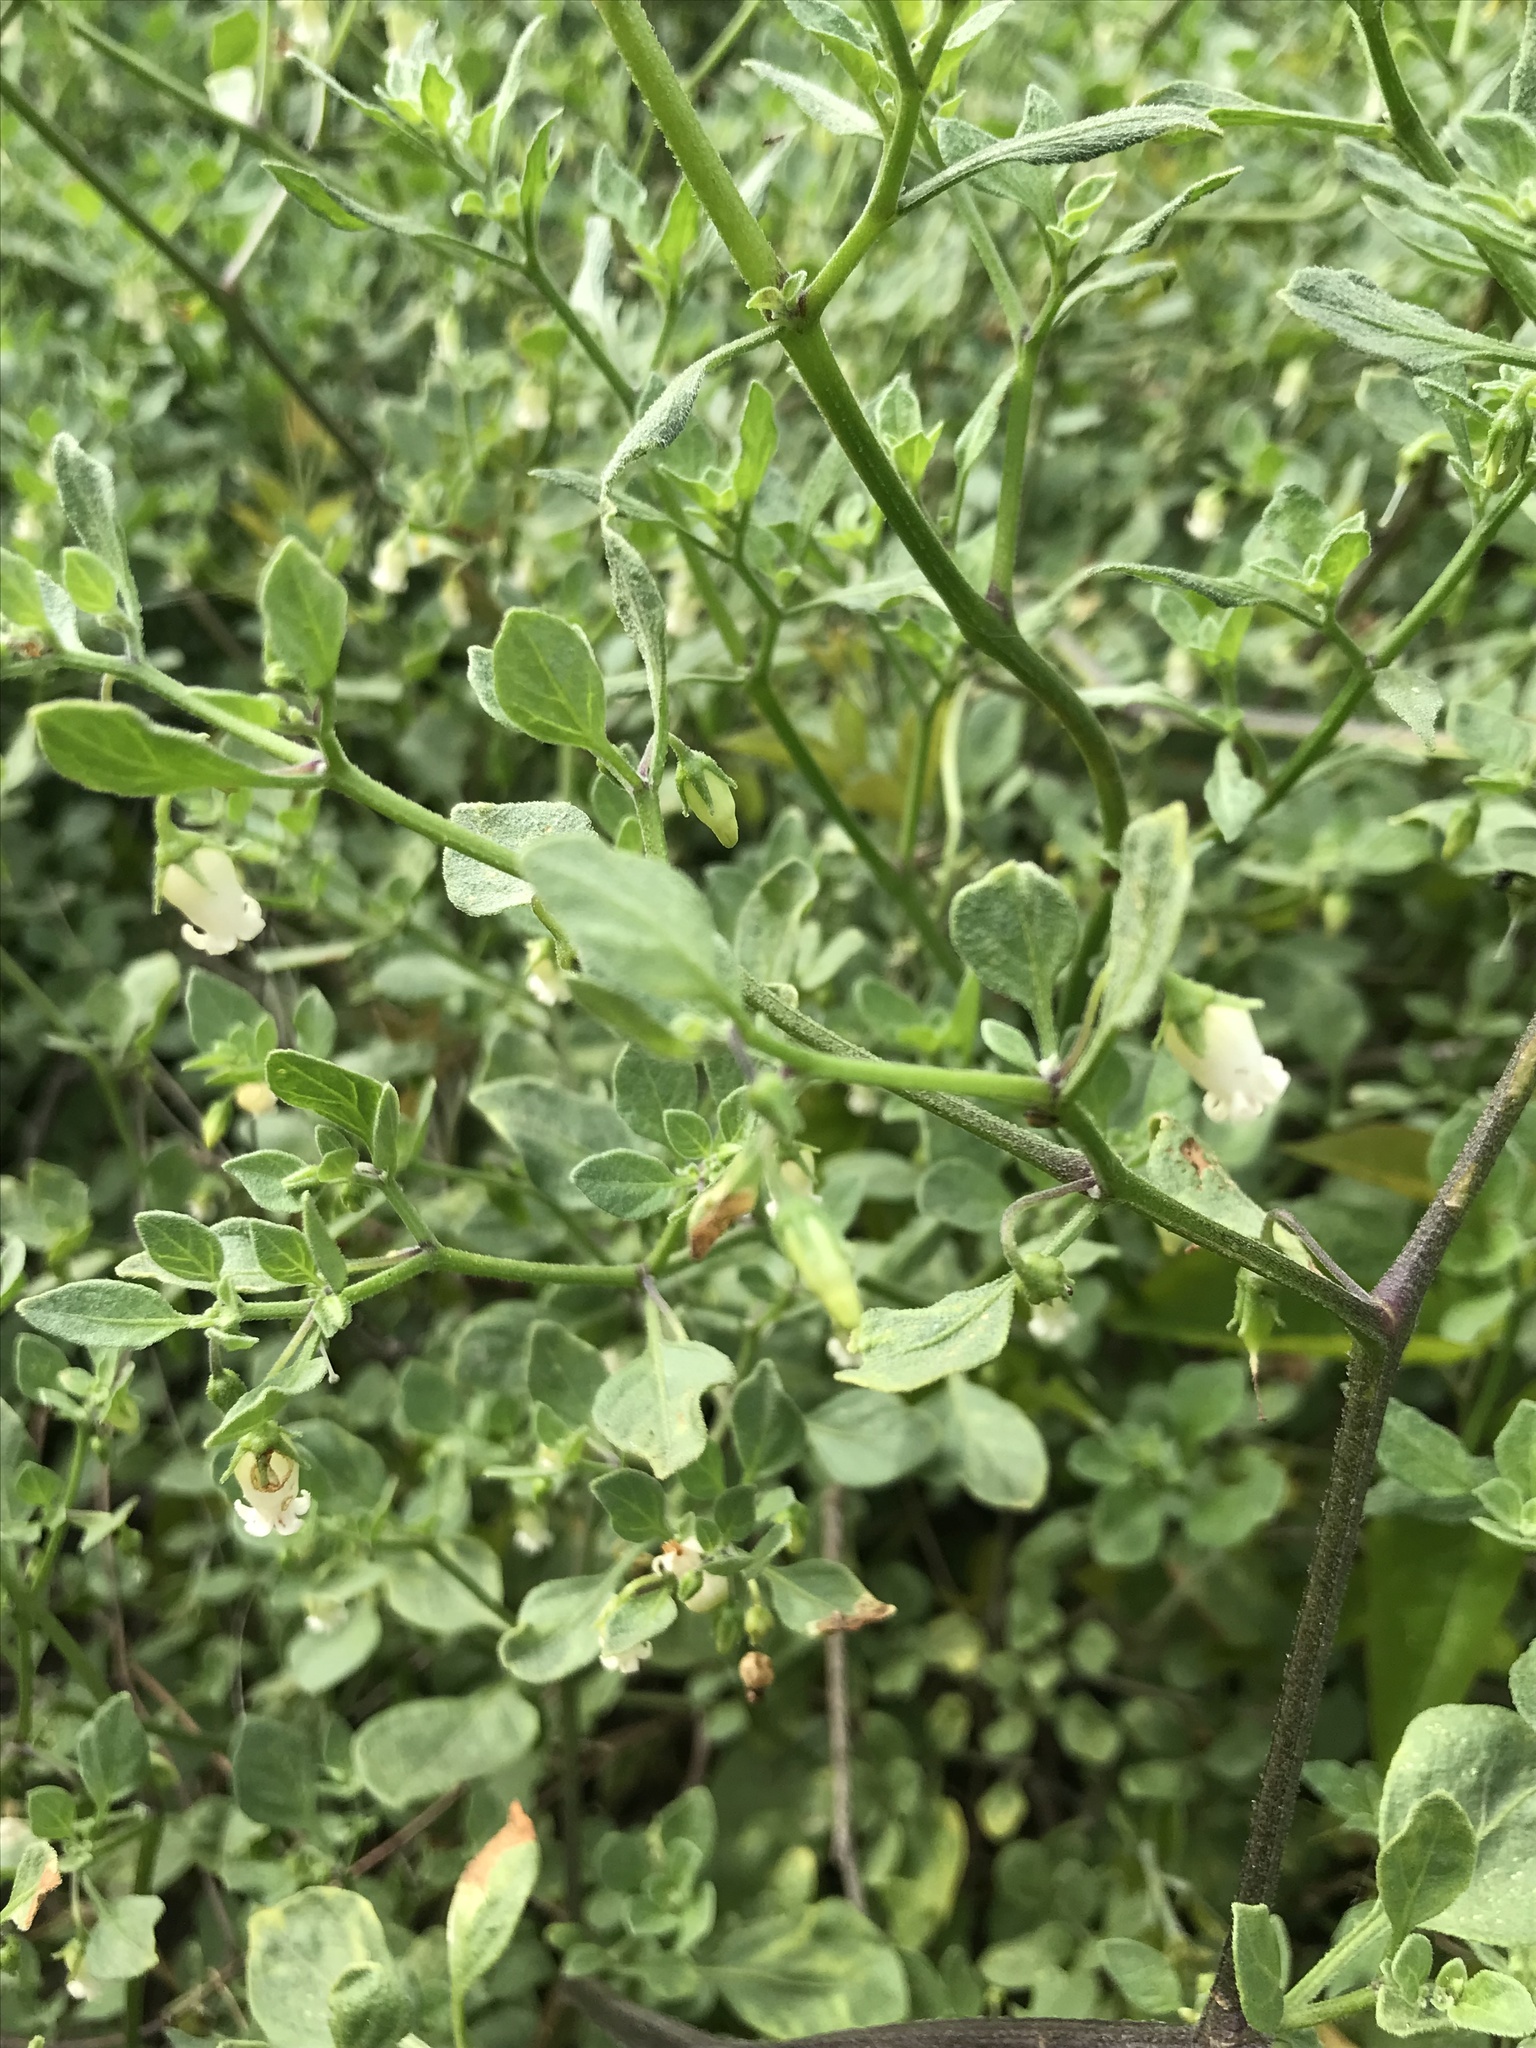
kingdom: Plantae
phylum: Tracheophyta
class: Magnoliopsida
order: Solanales
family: Solanaceae
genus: Salpichroa
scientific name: Salpichroa origanifolia
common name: Lily-of-the-valley-vine
